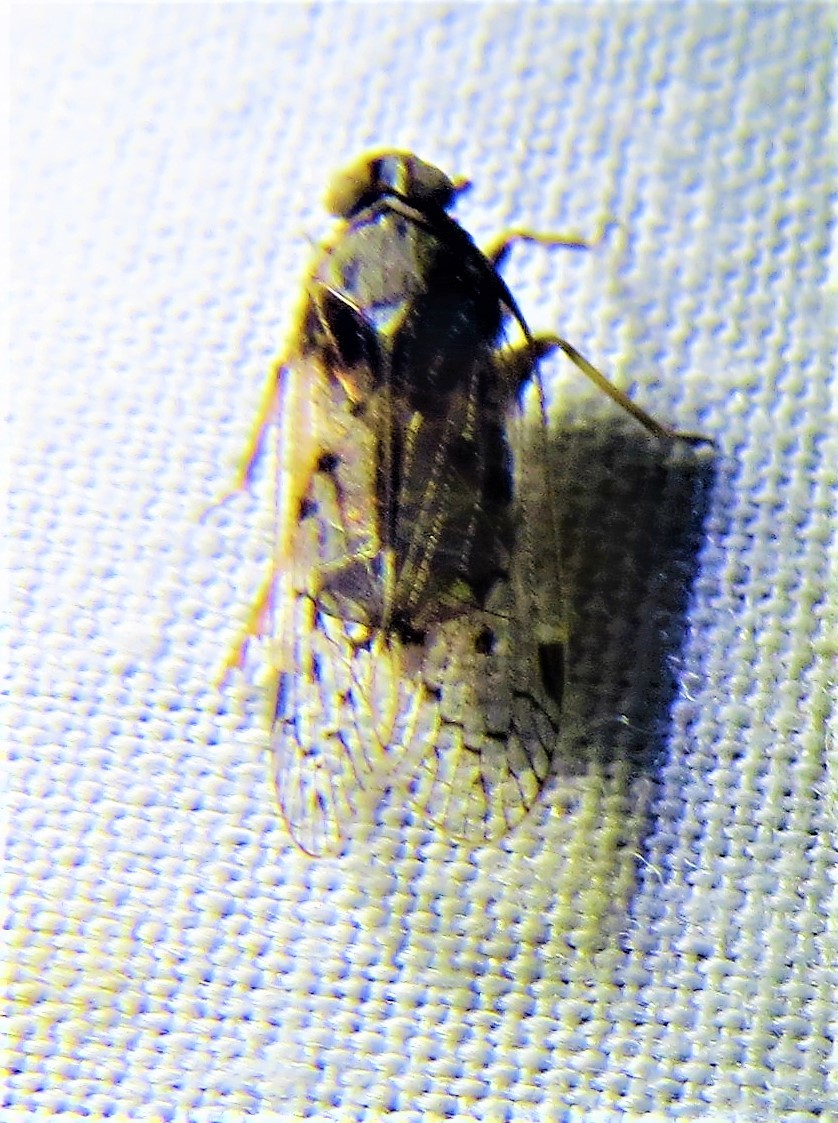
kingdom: Animalia
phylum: Arthropoda
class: Insecta
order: Hemiptera
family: Cixiidae
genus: Melanoliarus
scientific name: Melanoliarus aridus
